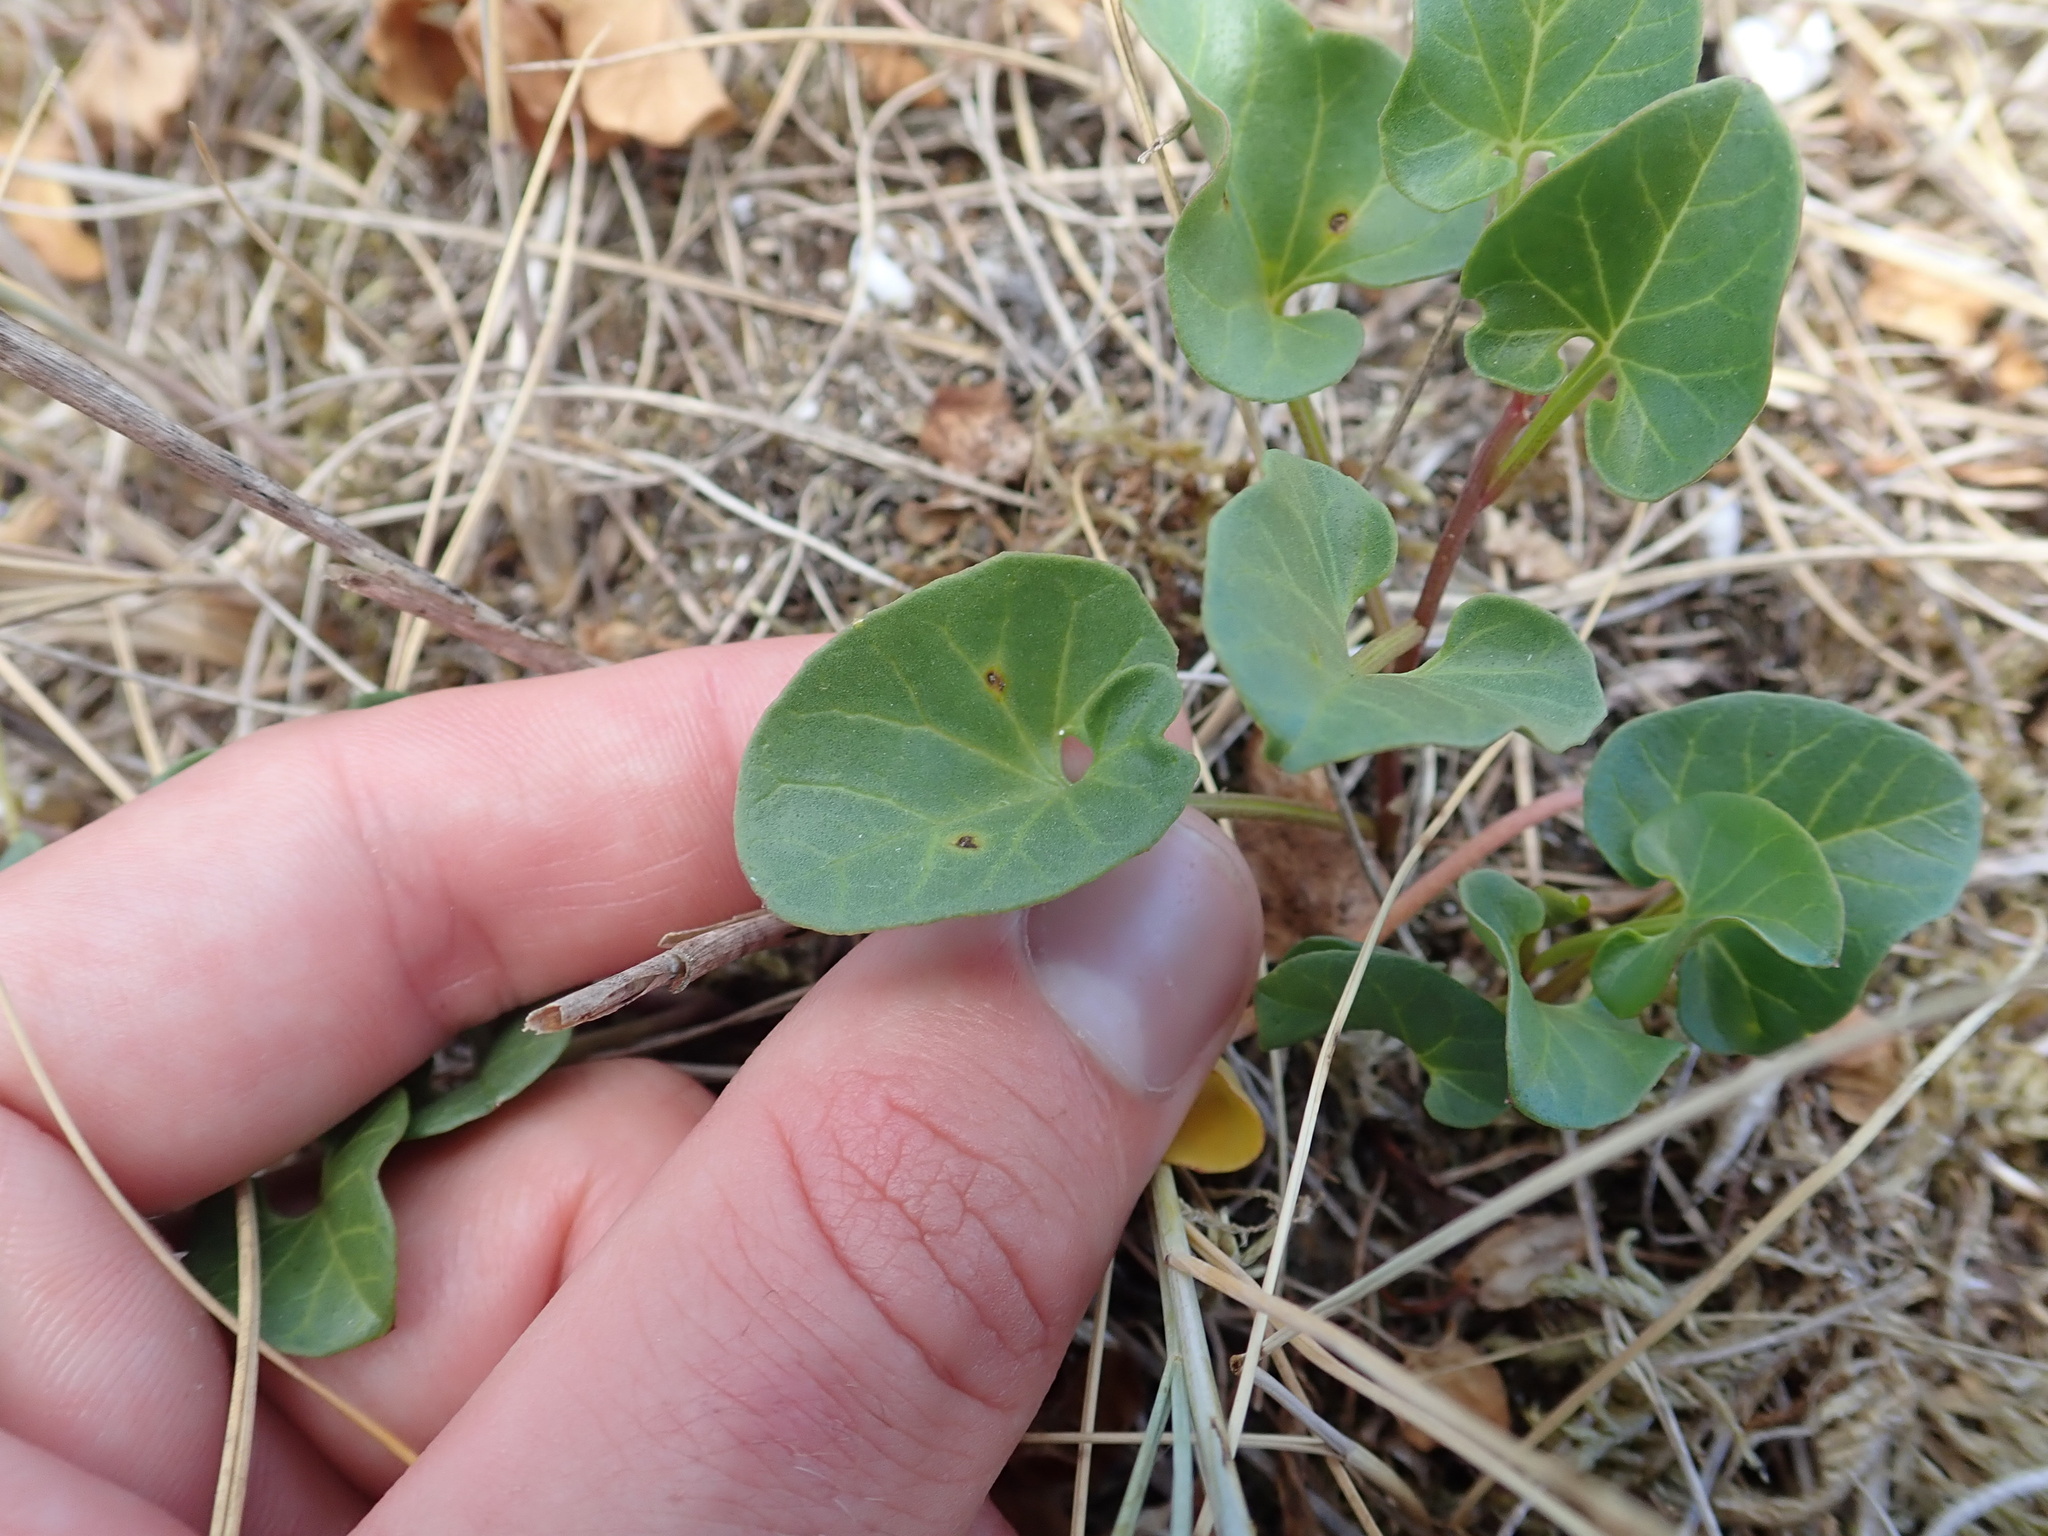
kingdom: Plantae
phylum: Tracheophyta
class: Magnoliopsida
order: Solanales
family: Convolvulaceae
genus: Calystegia
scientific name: Calystegia soldanella
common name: Sea bindweed
